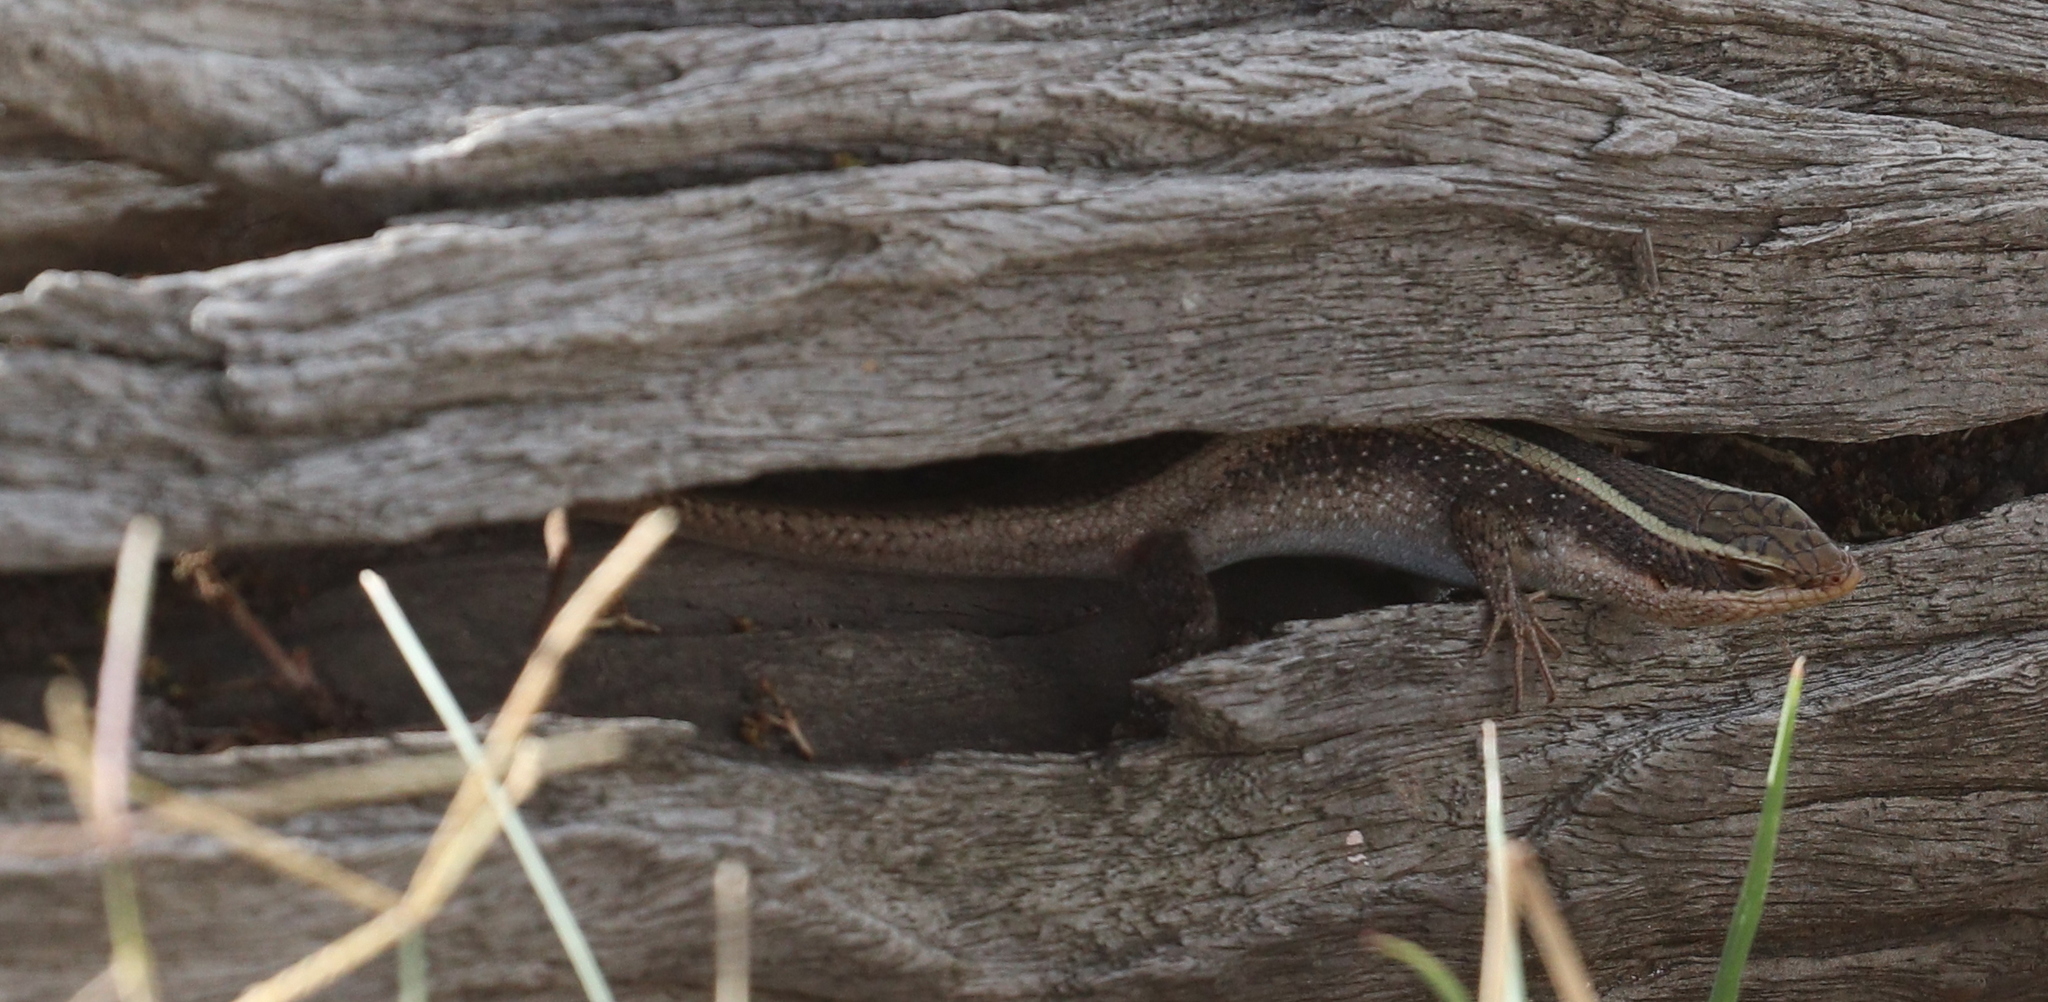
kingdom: Animalia
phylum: Chordata
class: Squamata
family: Scincidae
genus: Trachylepis
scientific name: Trachylepis striata
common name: African striped mabuya
